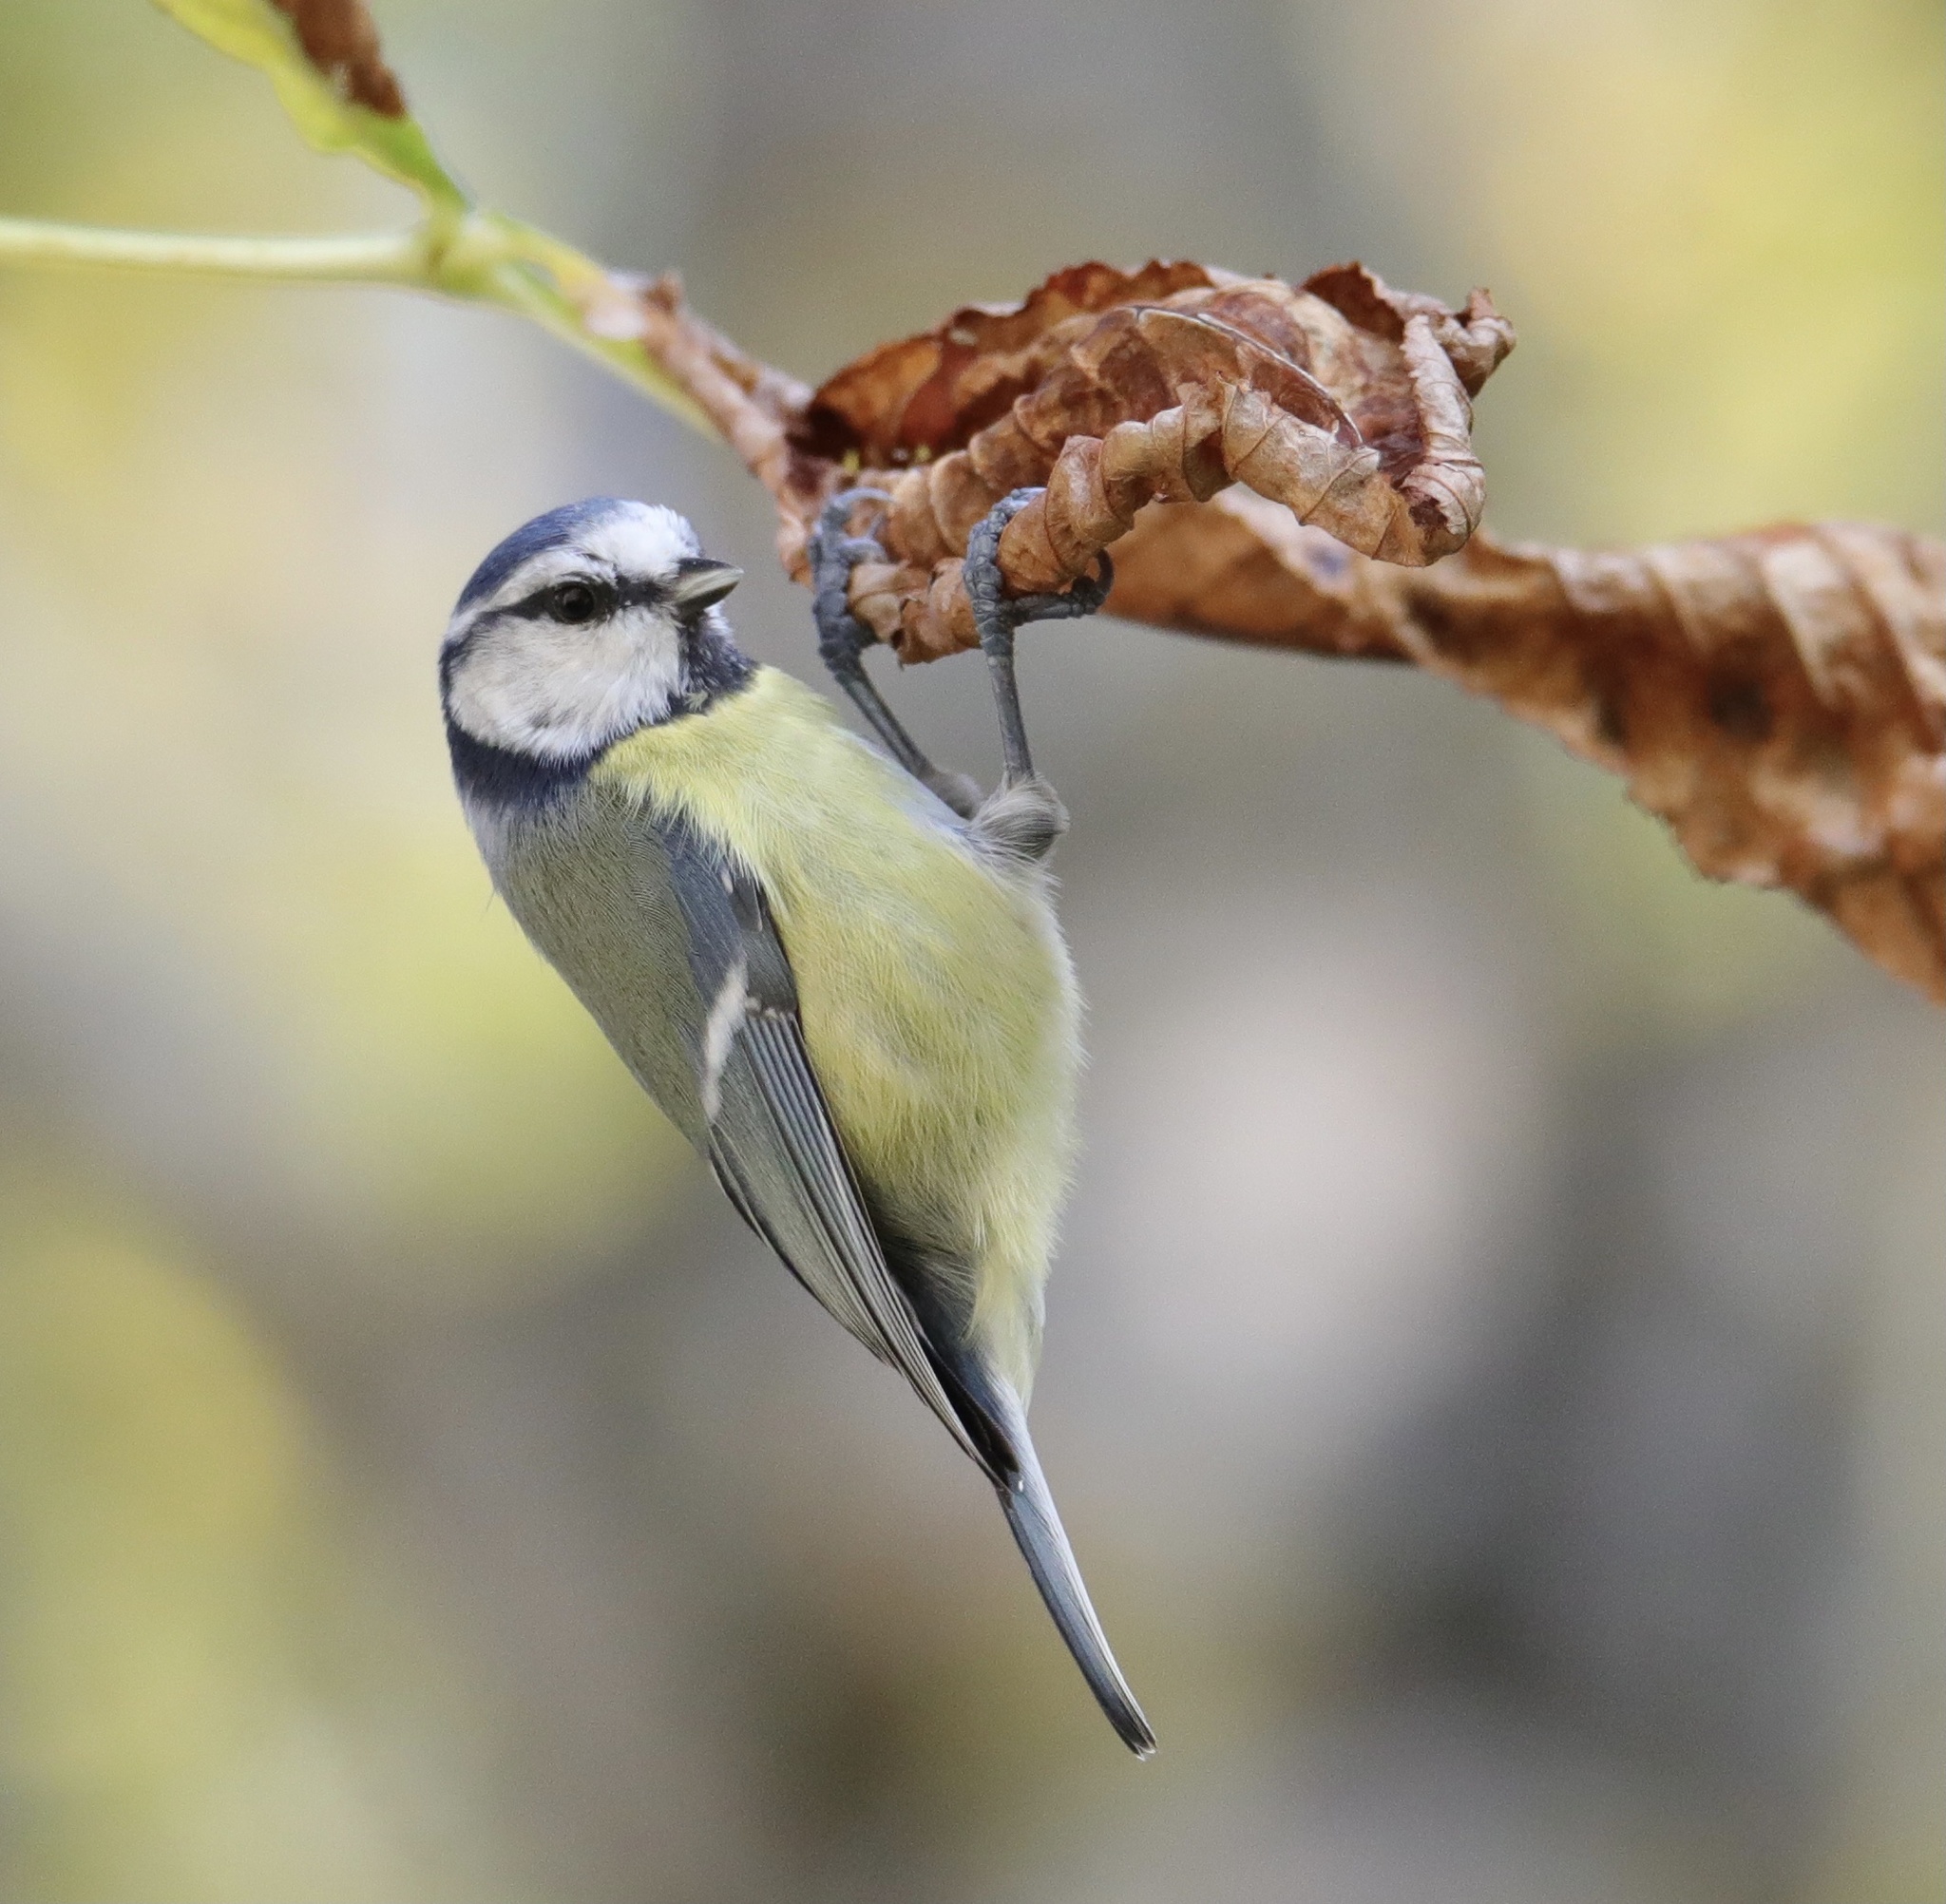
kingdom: Animalia
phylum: Chordata
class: Aves
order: Passeriformes
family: Paridae
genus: Cyanistes
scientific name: Cyanistes caeruleus
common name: Eurasian blue tit
